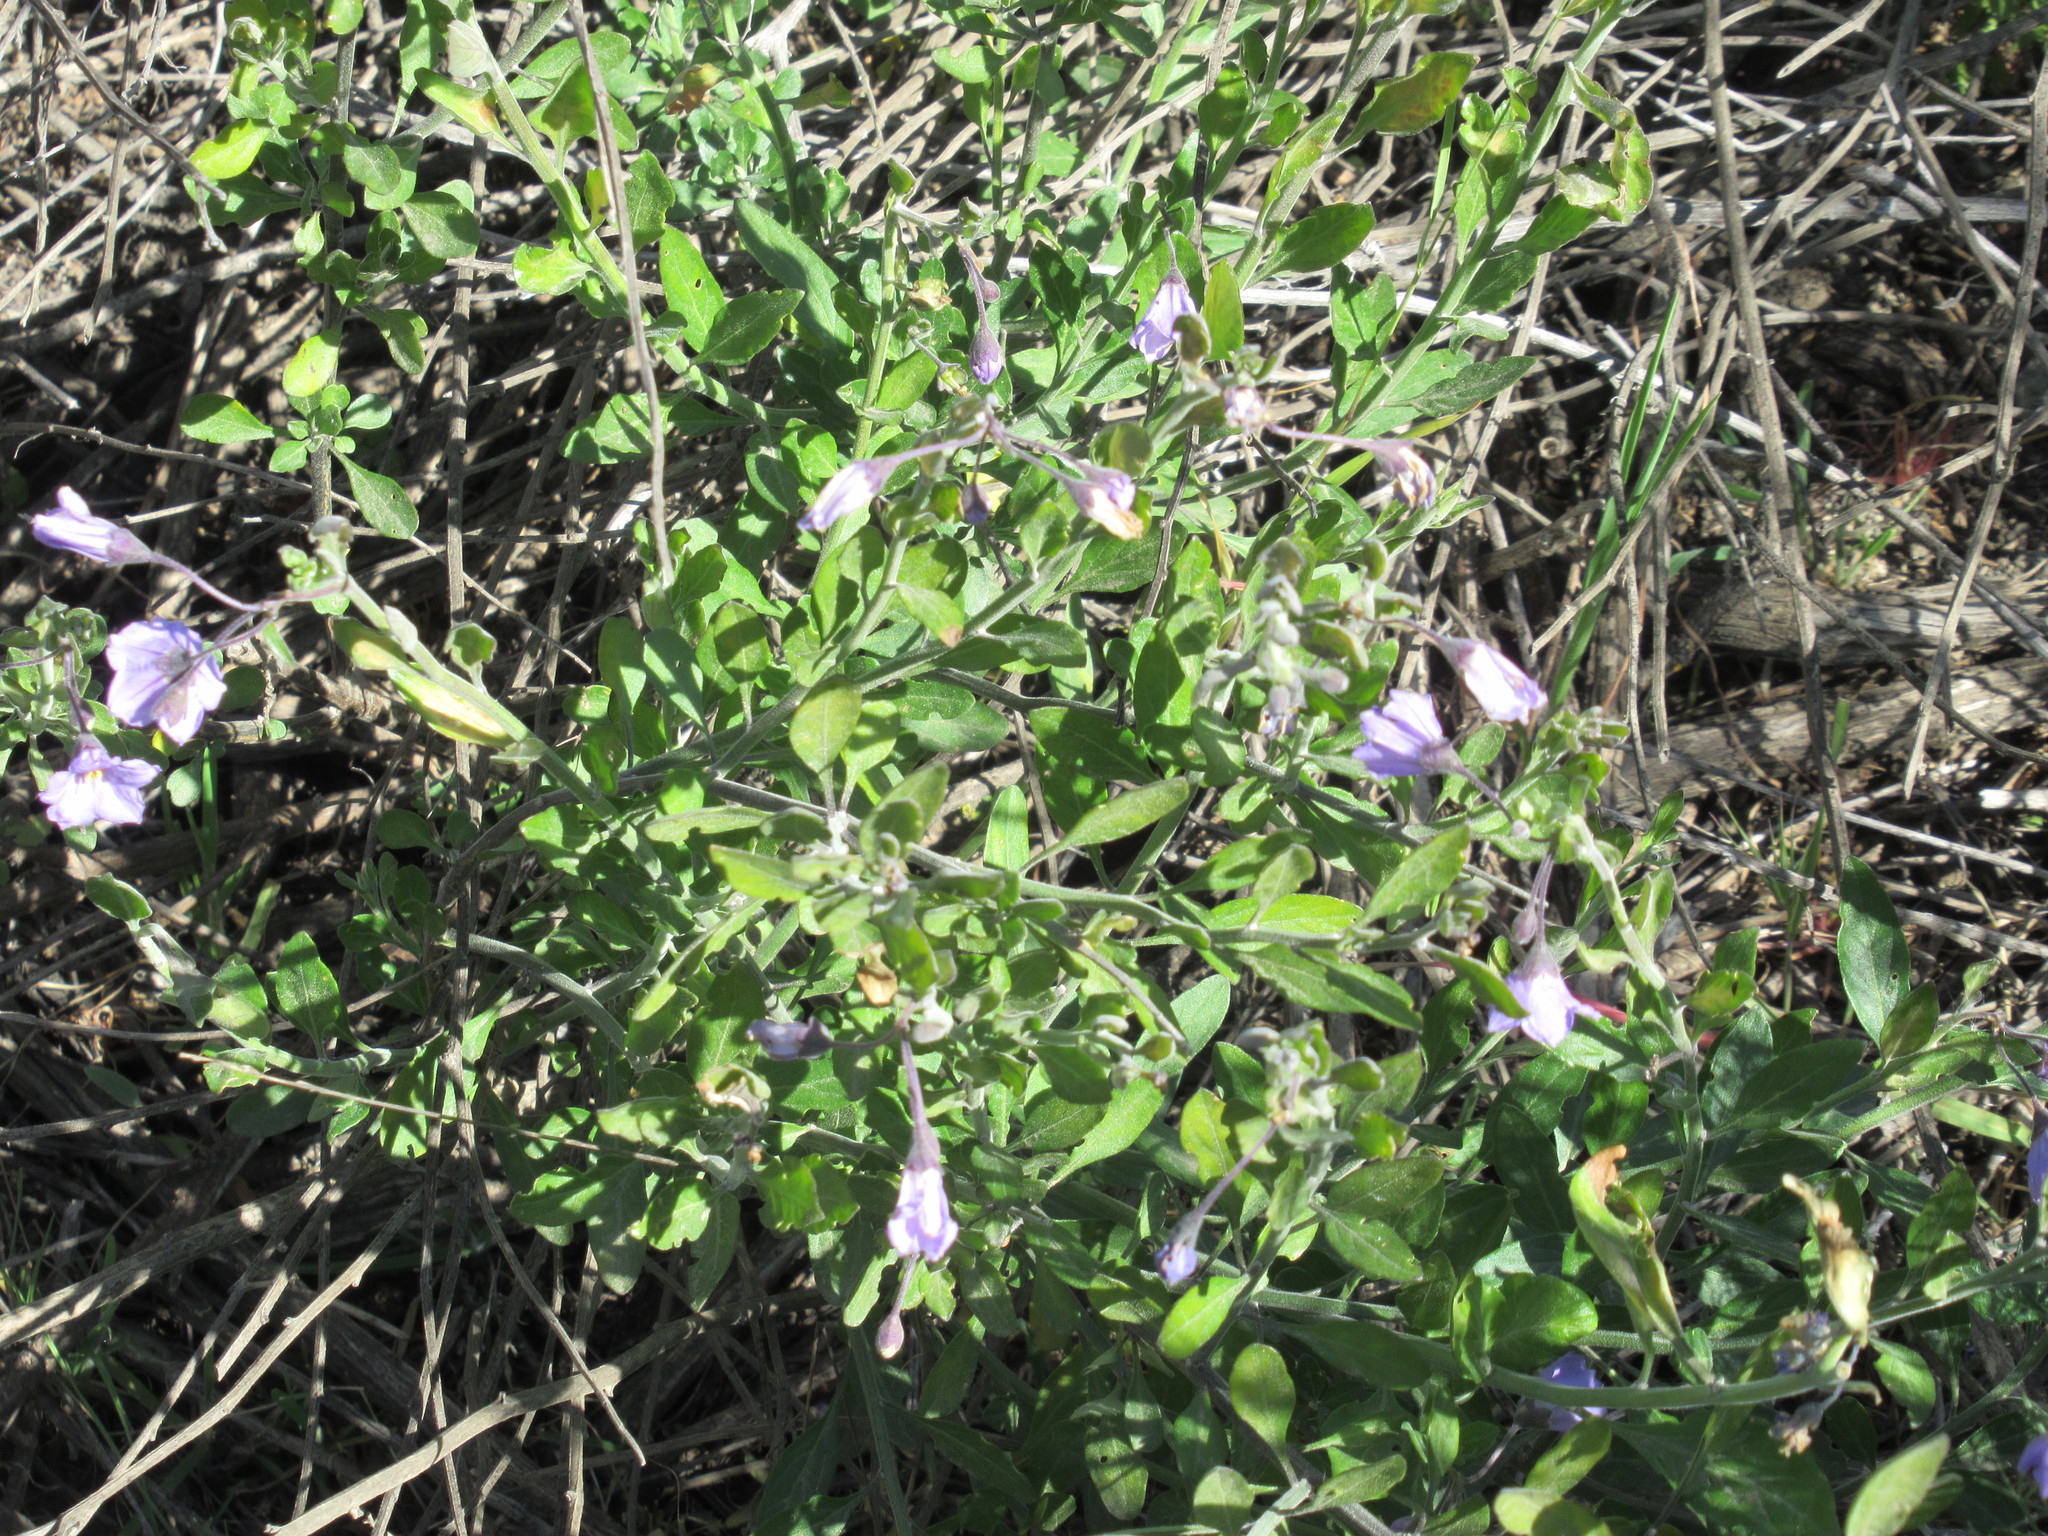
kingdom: Plantae
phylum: Tracheophyta
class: Magnoliopsida
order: Solanales
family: Solanaceae
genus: Solanum
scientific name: Solanum umbelliferum
